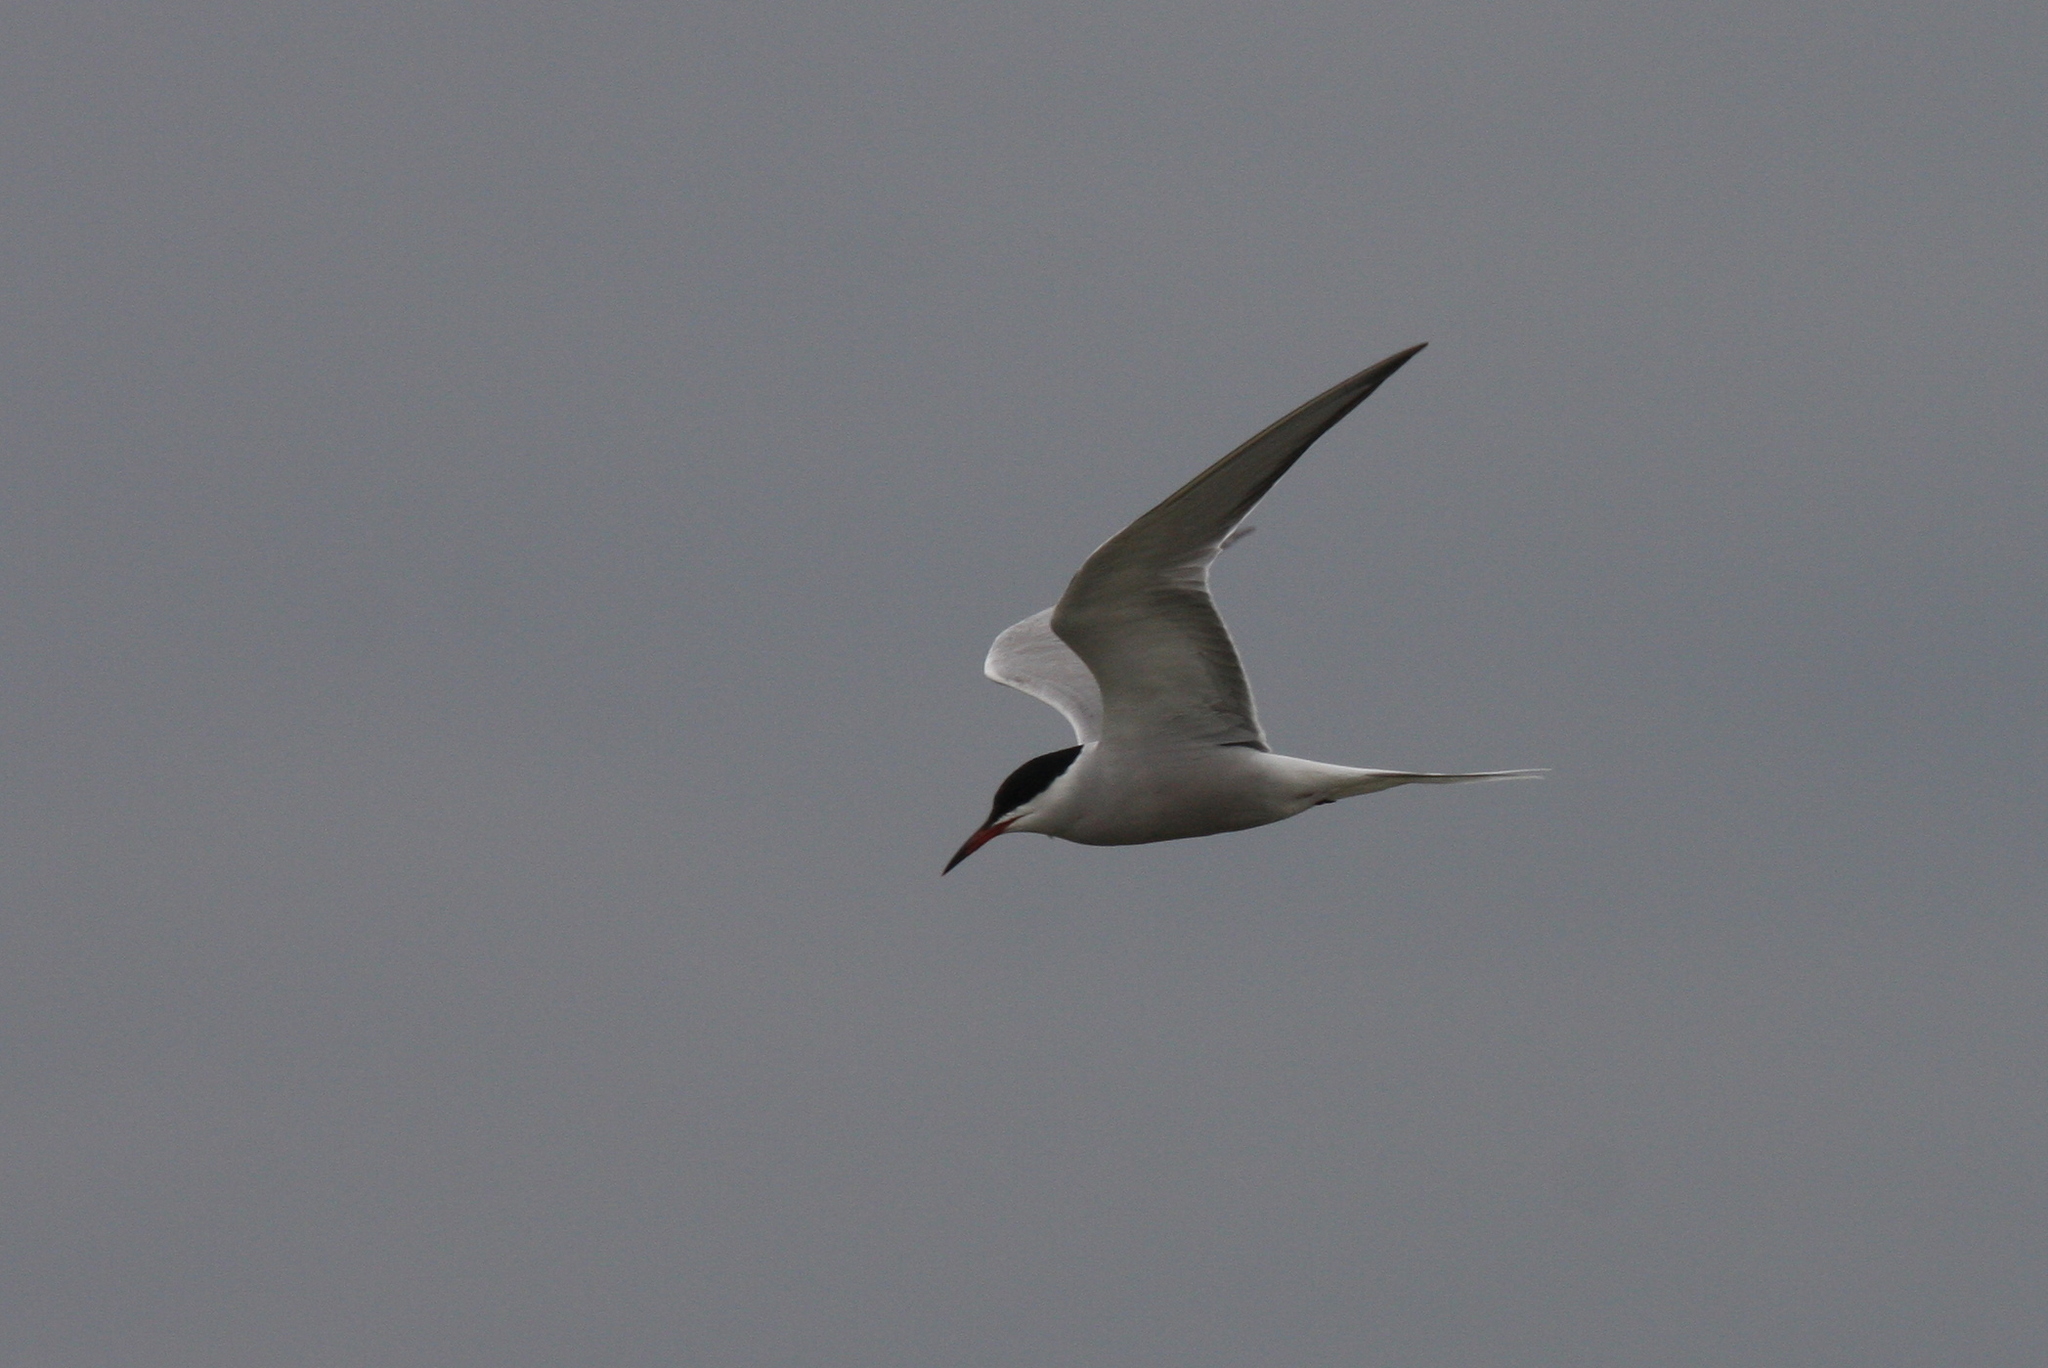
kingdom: Animalia
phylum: Chordata
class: Aves
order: Charadriiformes
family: Laridae
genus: Sterna
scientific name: Sterna hirundo
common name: Common tern
